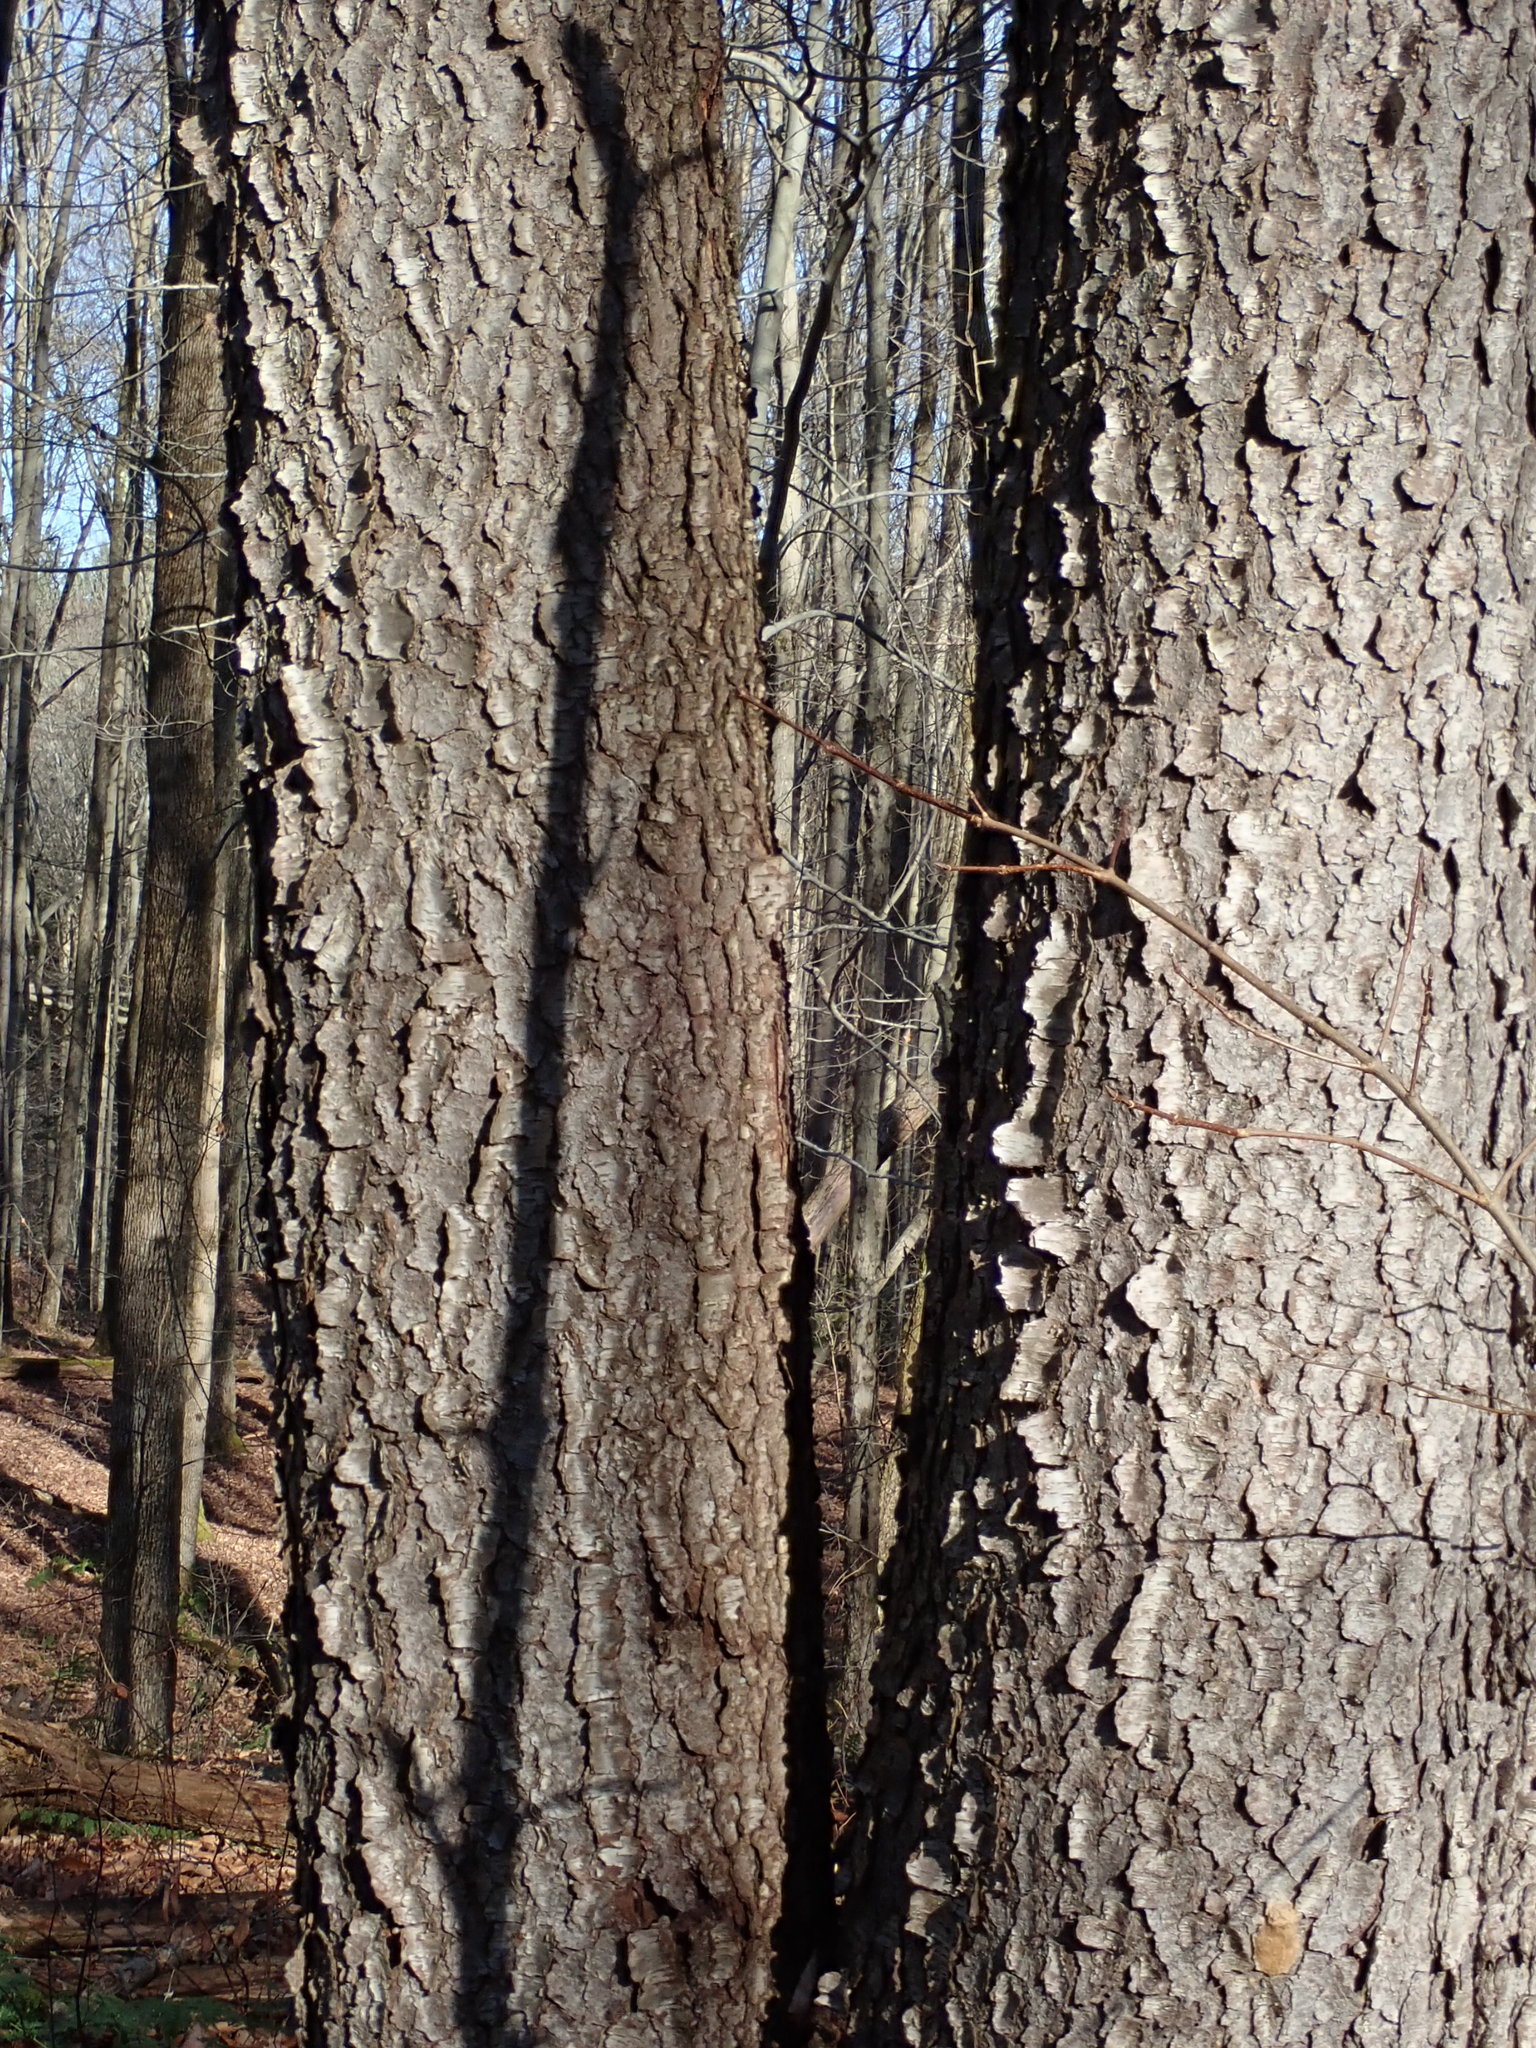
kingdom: Plantae
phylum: Tracheophyta
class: Magnoliopsida
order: Rosales
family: Rosaceae
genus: Prunus
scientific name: Prunus serotina
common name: Black cherry
